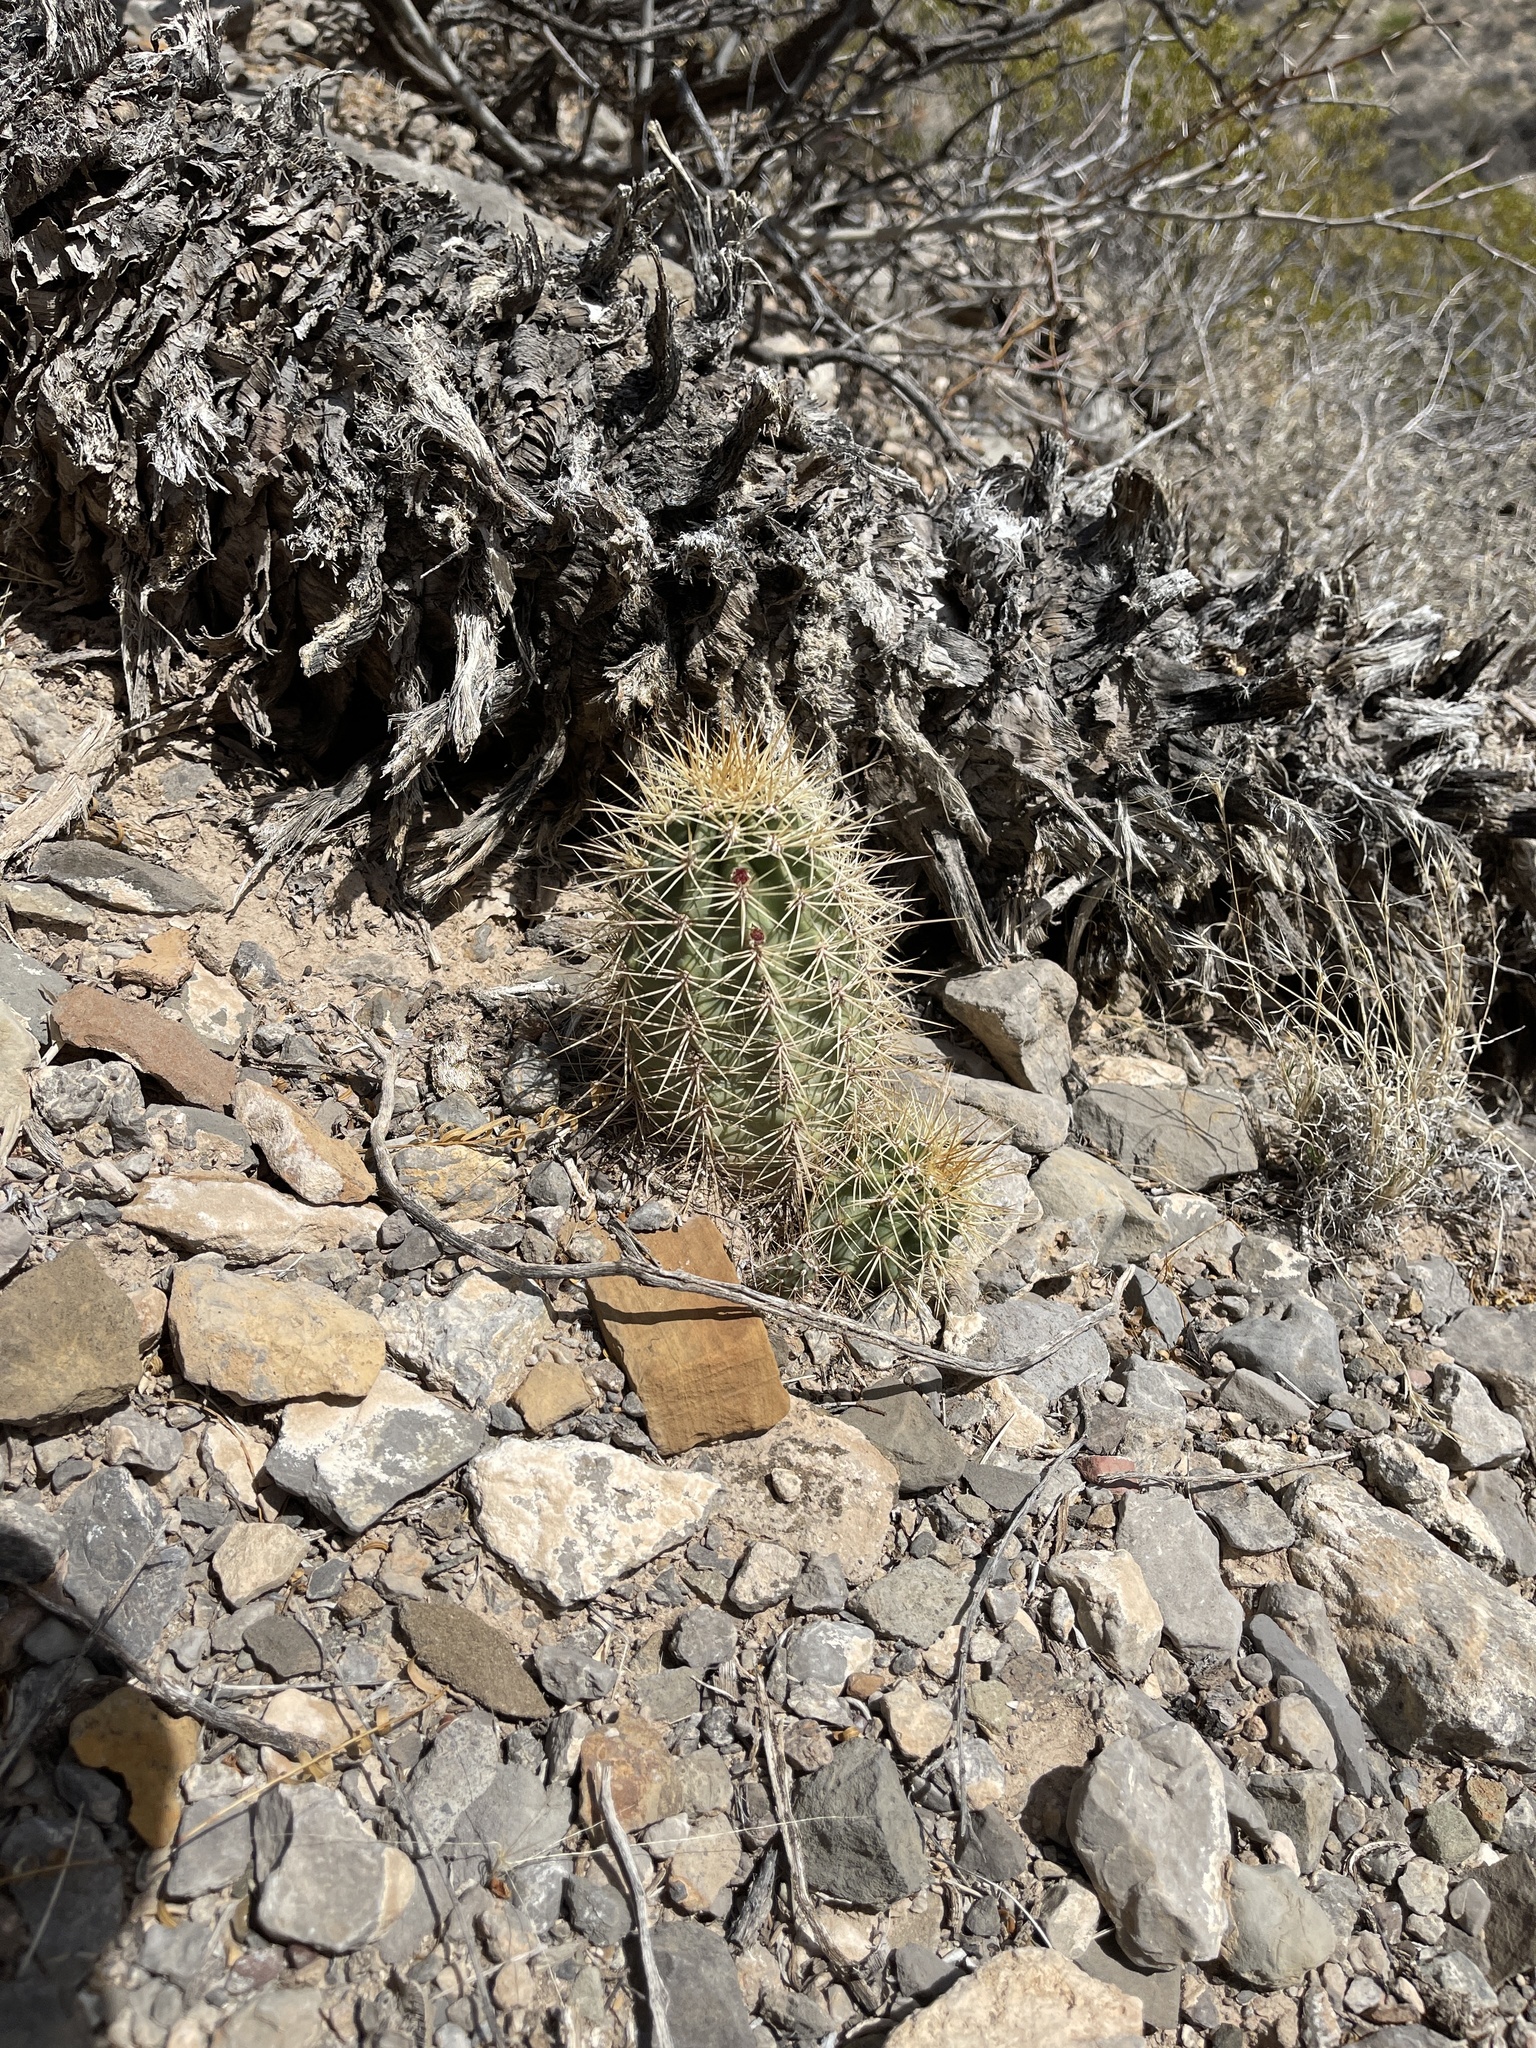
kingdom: Plantae
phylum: Tracheophyta
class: Magnoliopsida
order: Caryophyllales
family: Cactaceae
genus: Echinocereus
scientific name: Echinocereus coccineus
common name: Scarlet hedgehog cactus
